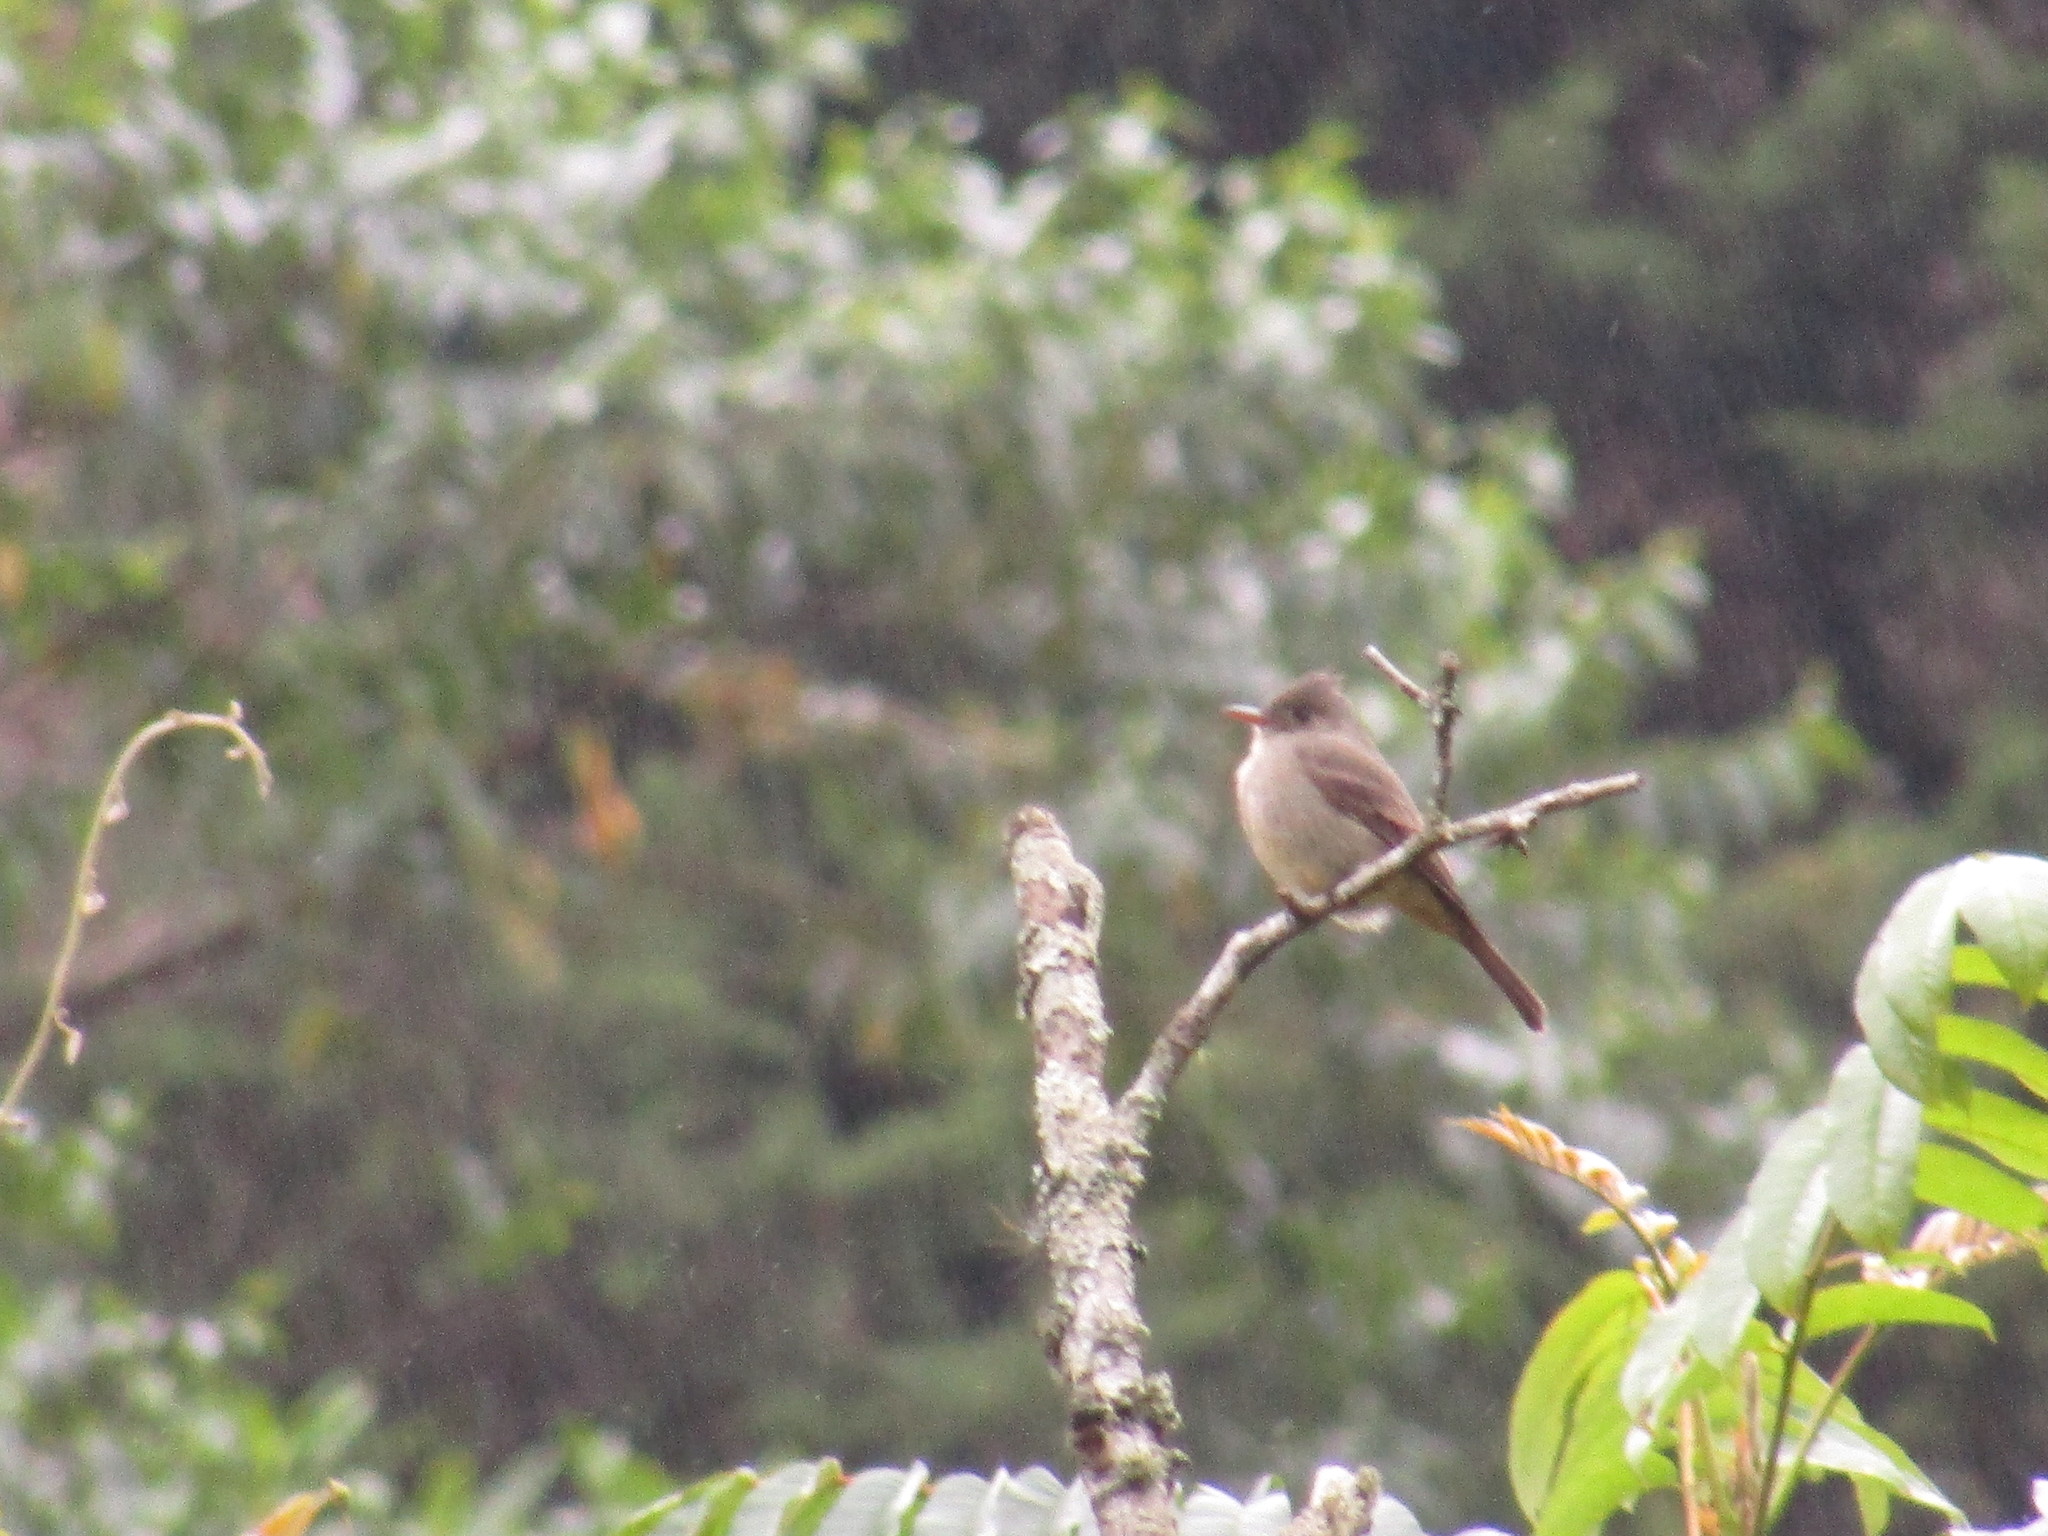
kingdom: Animalia
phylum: Chordata
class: Aves
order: Passeriformes
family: Tyrannidae
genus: Contopus
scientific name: Contopus pertinax
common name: Greater pewee
